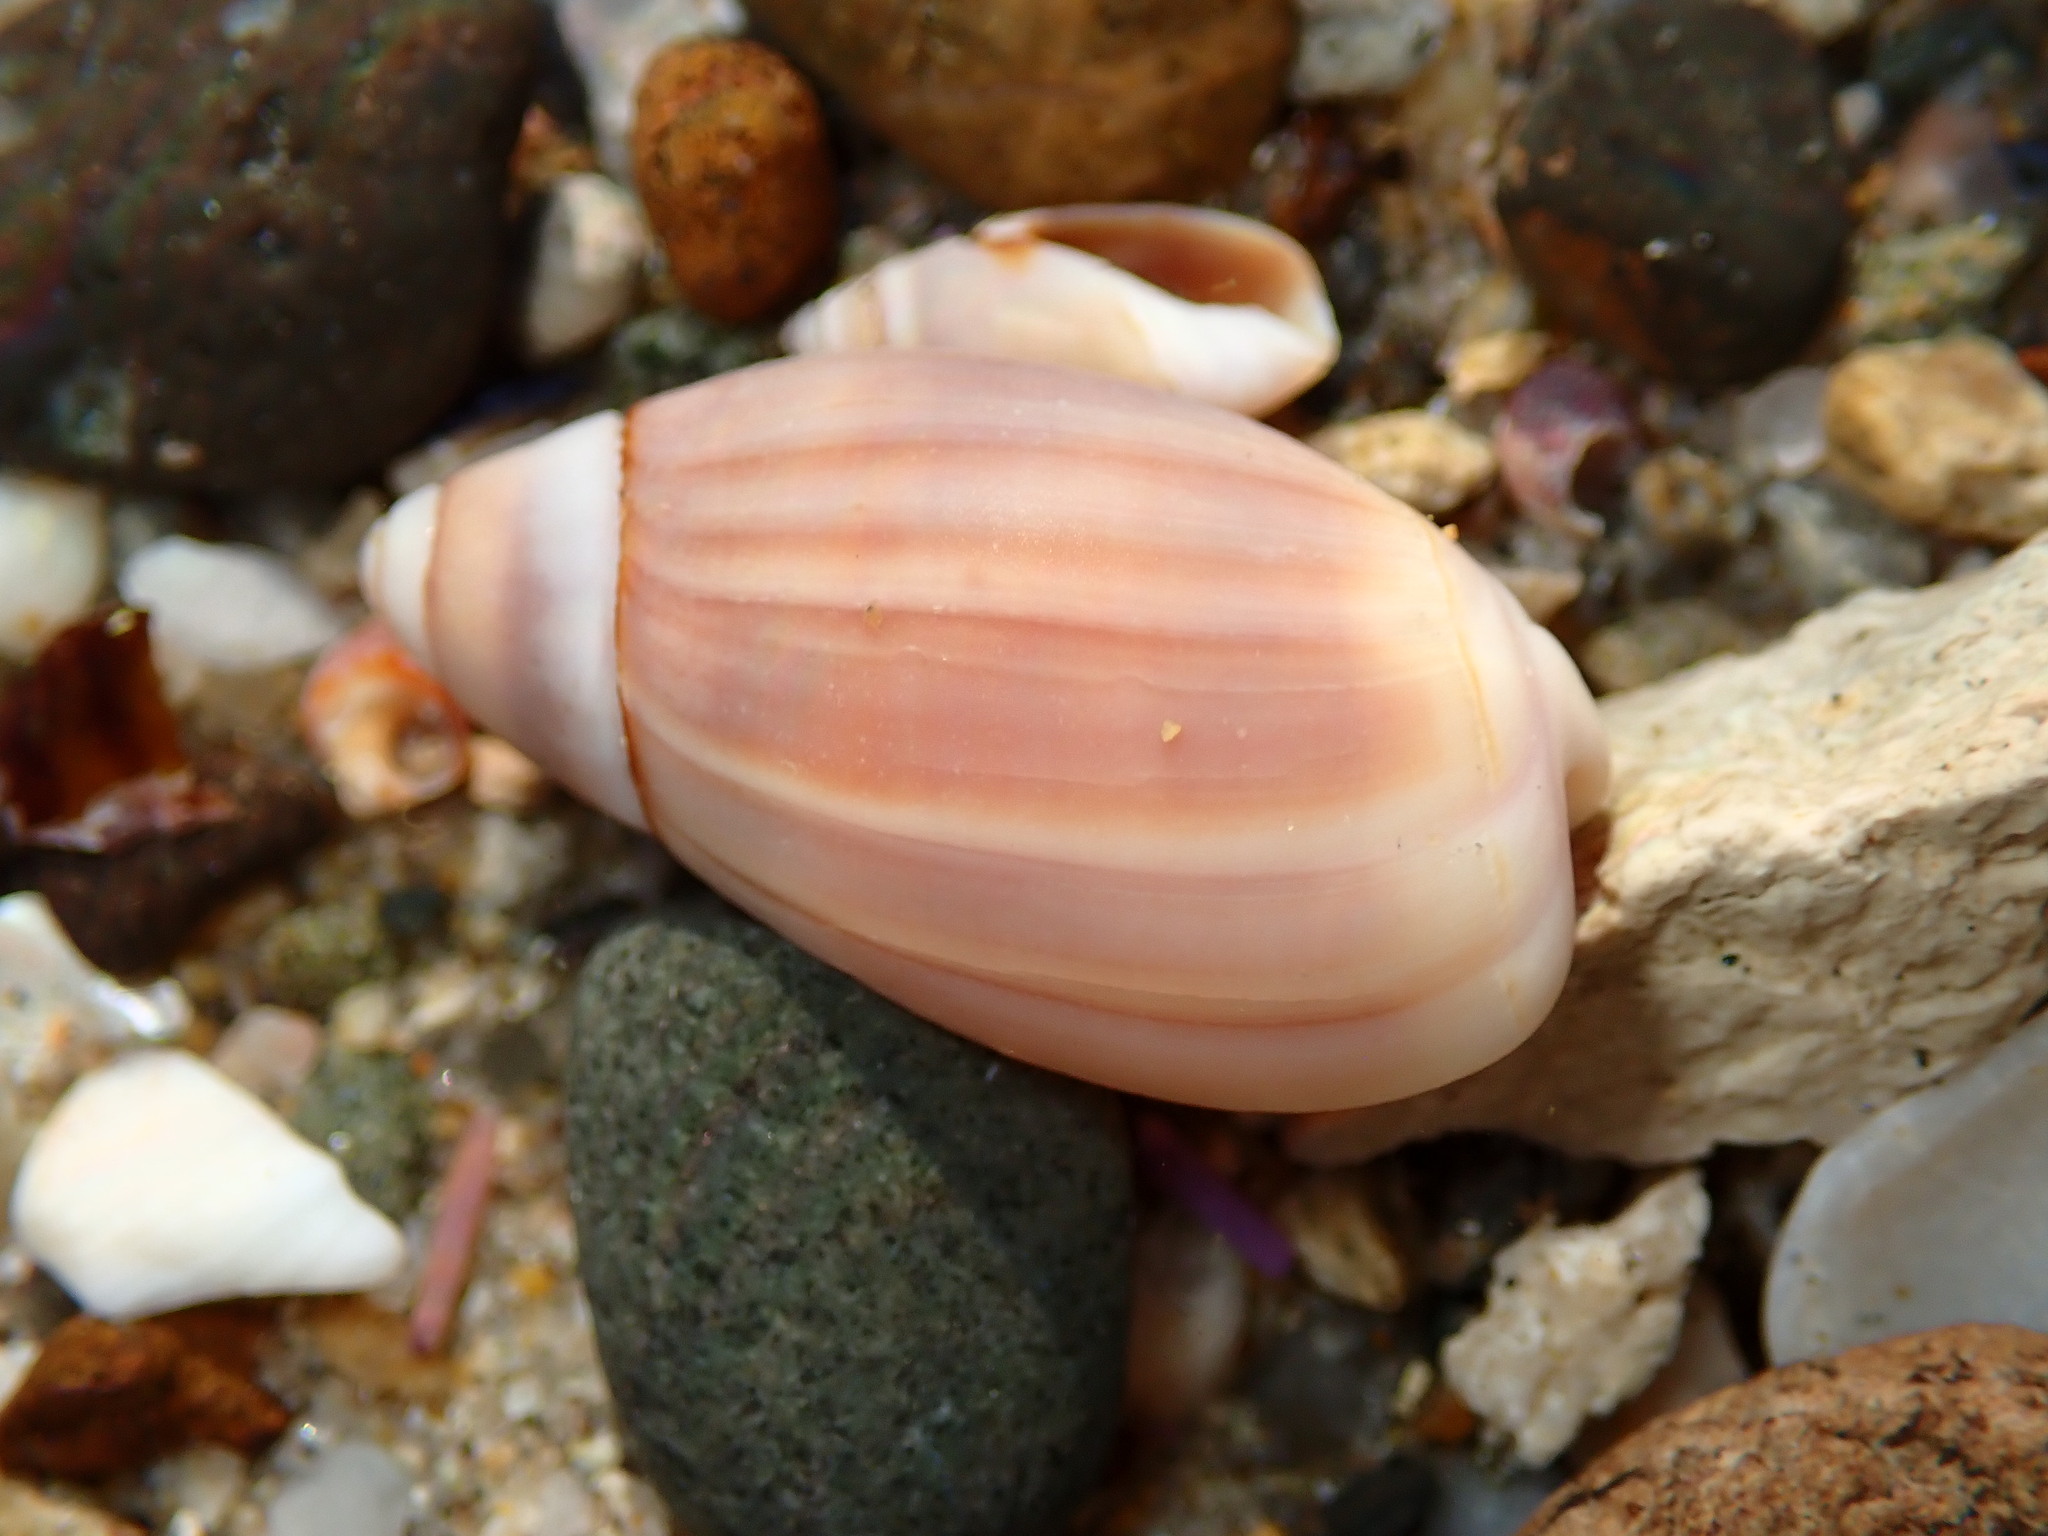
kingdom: Animalia
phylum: Mollusca
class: Gastropoda
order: Neogastropoda
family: Olividae
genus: Callianax
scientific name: Callianax biplicata
